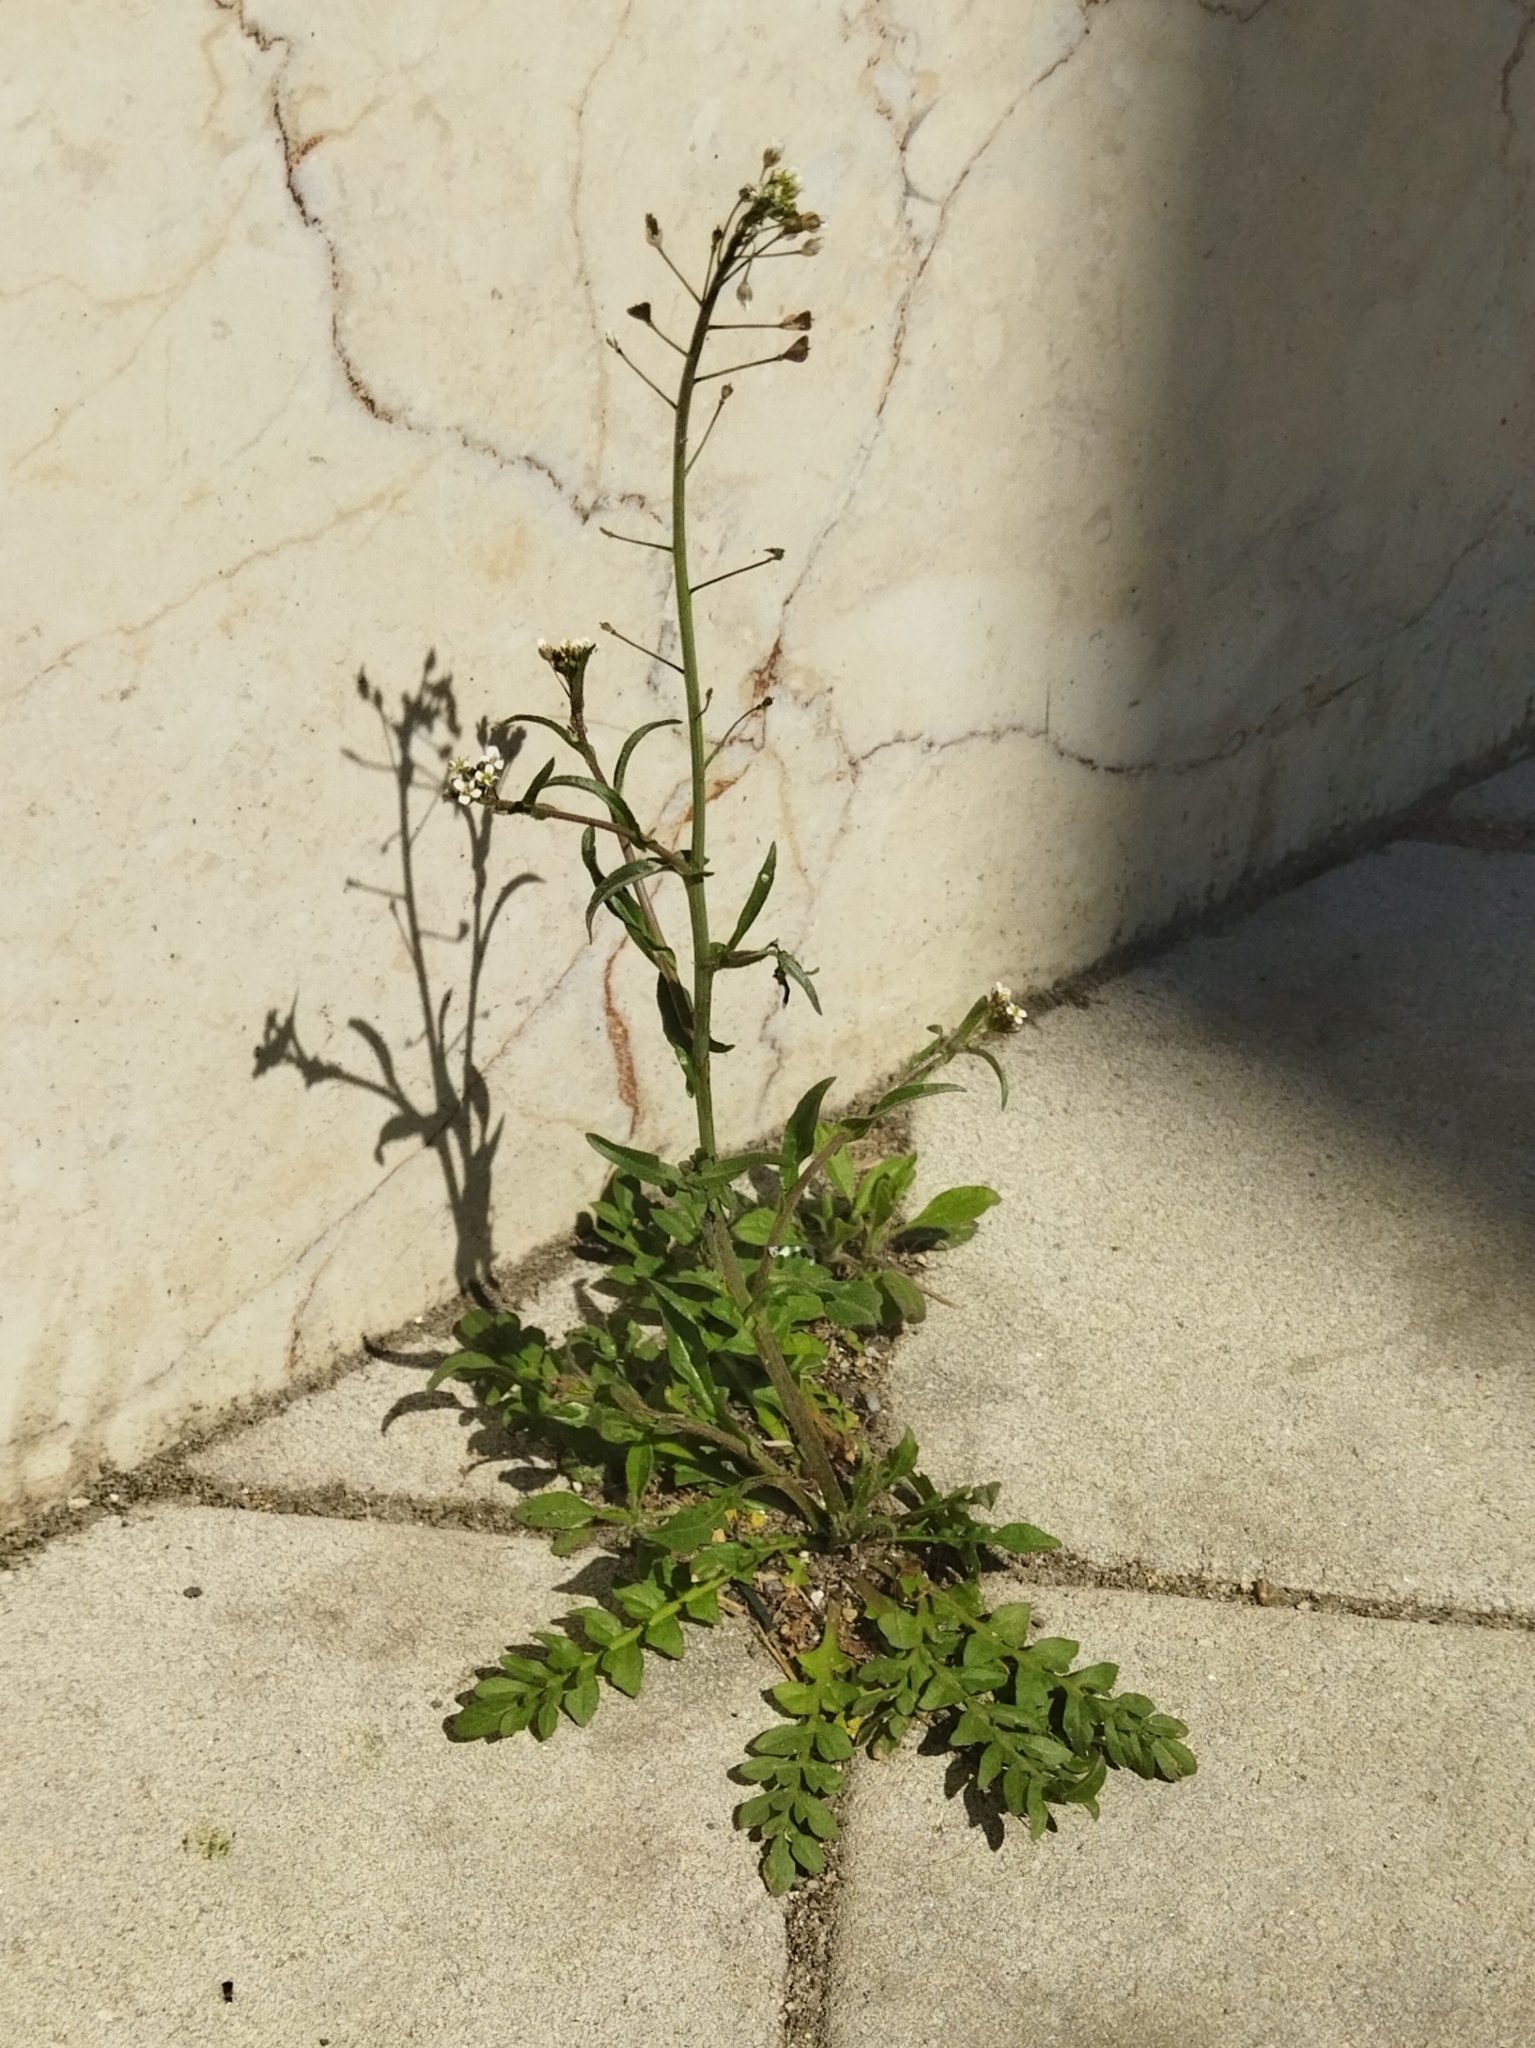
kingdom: Plantae
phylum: Tracheophyta
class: Magnoliopsida
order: Brassicales
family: Brassicaceae
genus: Capsella
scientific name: Capsella bursa-pastoris
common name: Shepherd's purse
